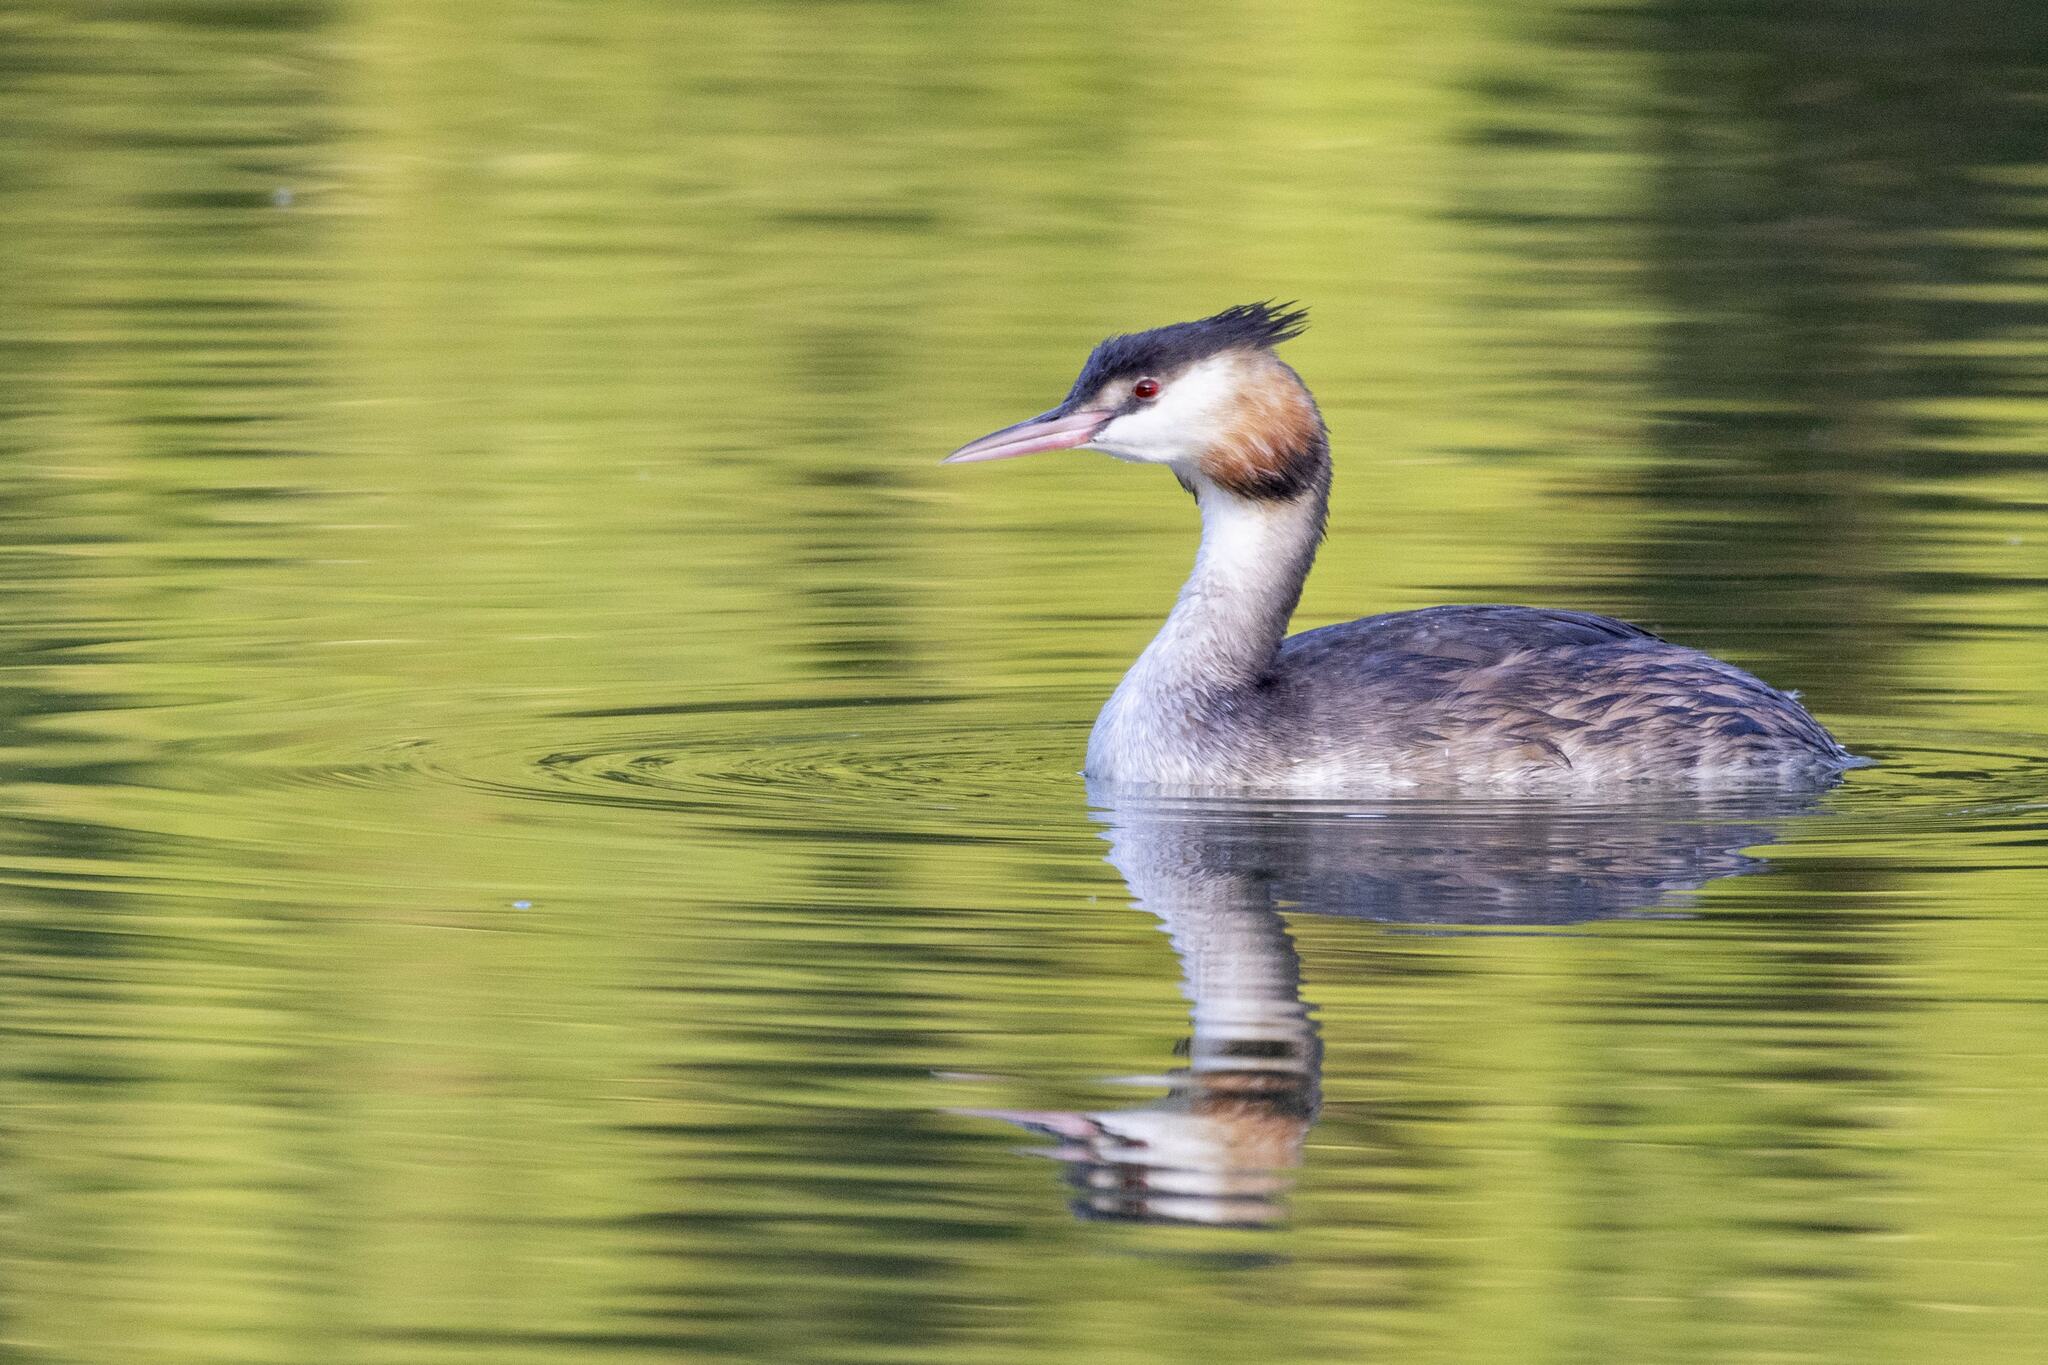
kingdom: Animalia
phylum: Chordata
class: Aves
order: Podicipediformes
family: Podicipedidae
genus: Podiceps
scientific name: Podiceps cristatus
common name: Great crested grebe
